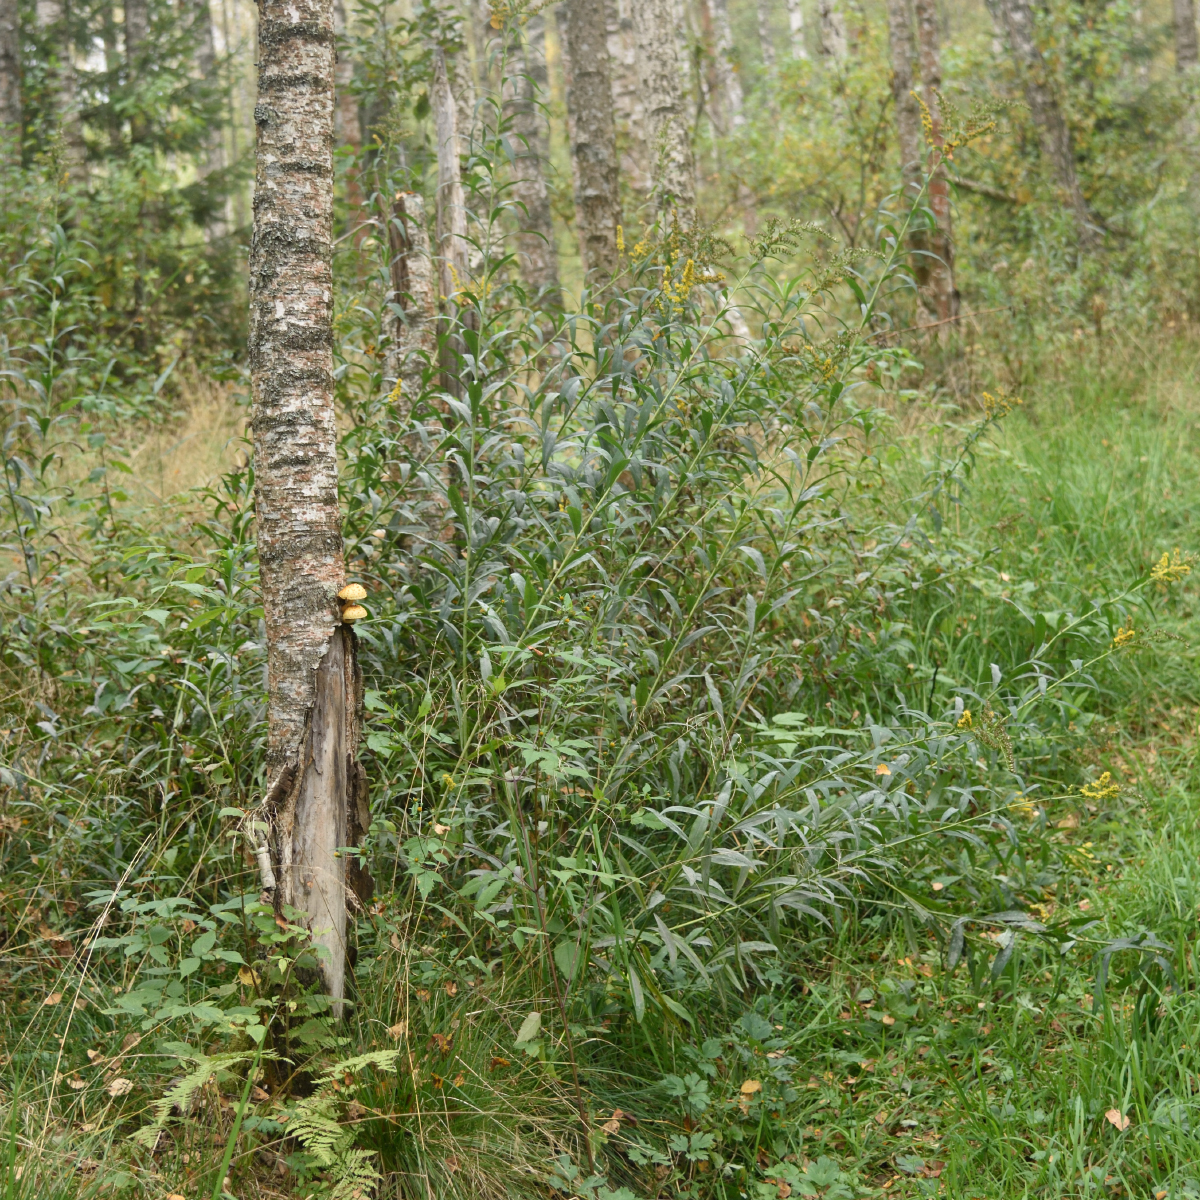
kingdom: Plantae
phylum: Tracheophyta
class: Magnoliopsida
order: Asterales
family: Asteraceae
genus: Solidago
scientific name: Solidago gigantea
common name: Giant goldenrod
